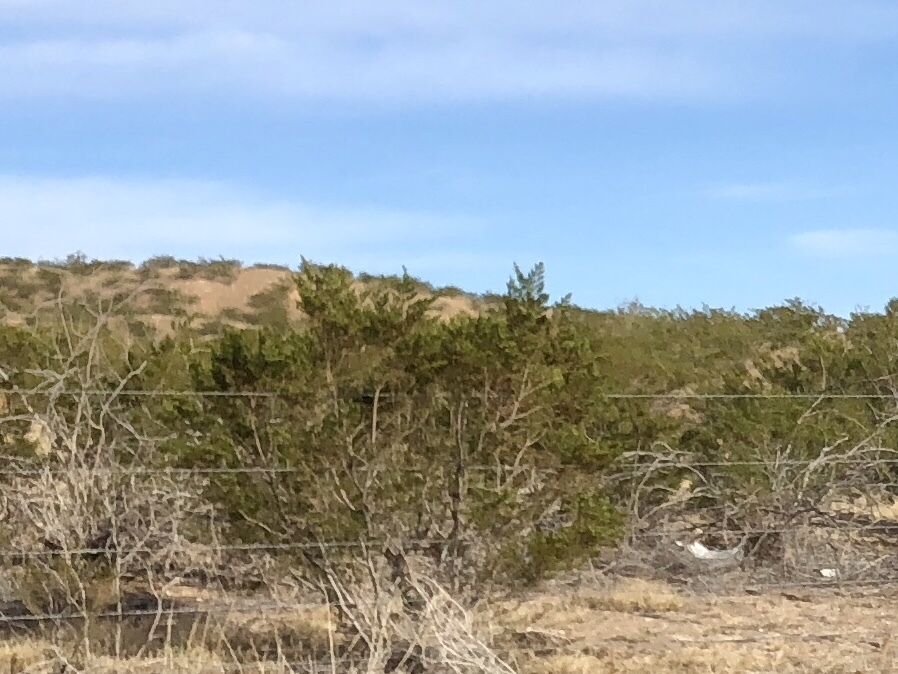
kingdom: Plantae
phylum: Tracheophyta
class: Magnoliopsida
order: Zygophyllales
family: Zygophyllaceae
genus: Larrea
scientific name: Larrea tridentata
